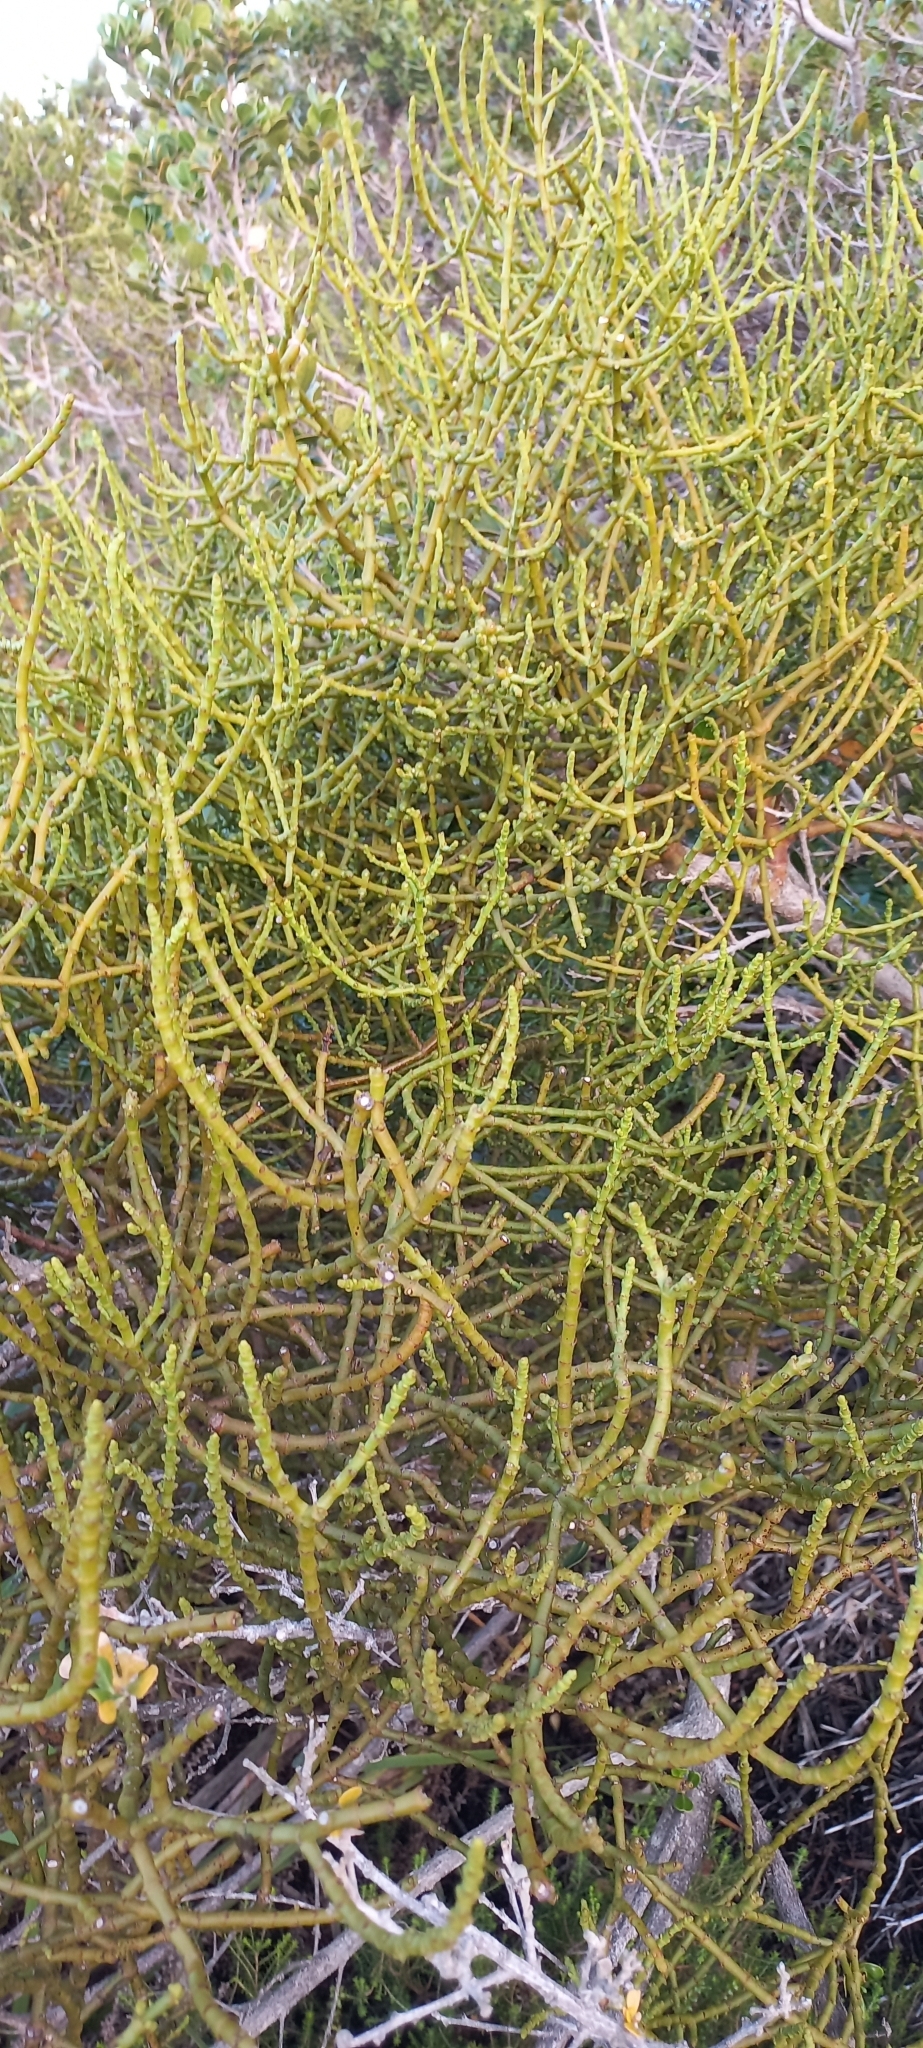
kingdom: Plantae
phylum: Tracheophyta
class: Magnoliopsida
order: Santalales
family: Viscaceae
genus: Viscum
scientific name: Viscum capense
